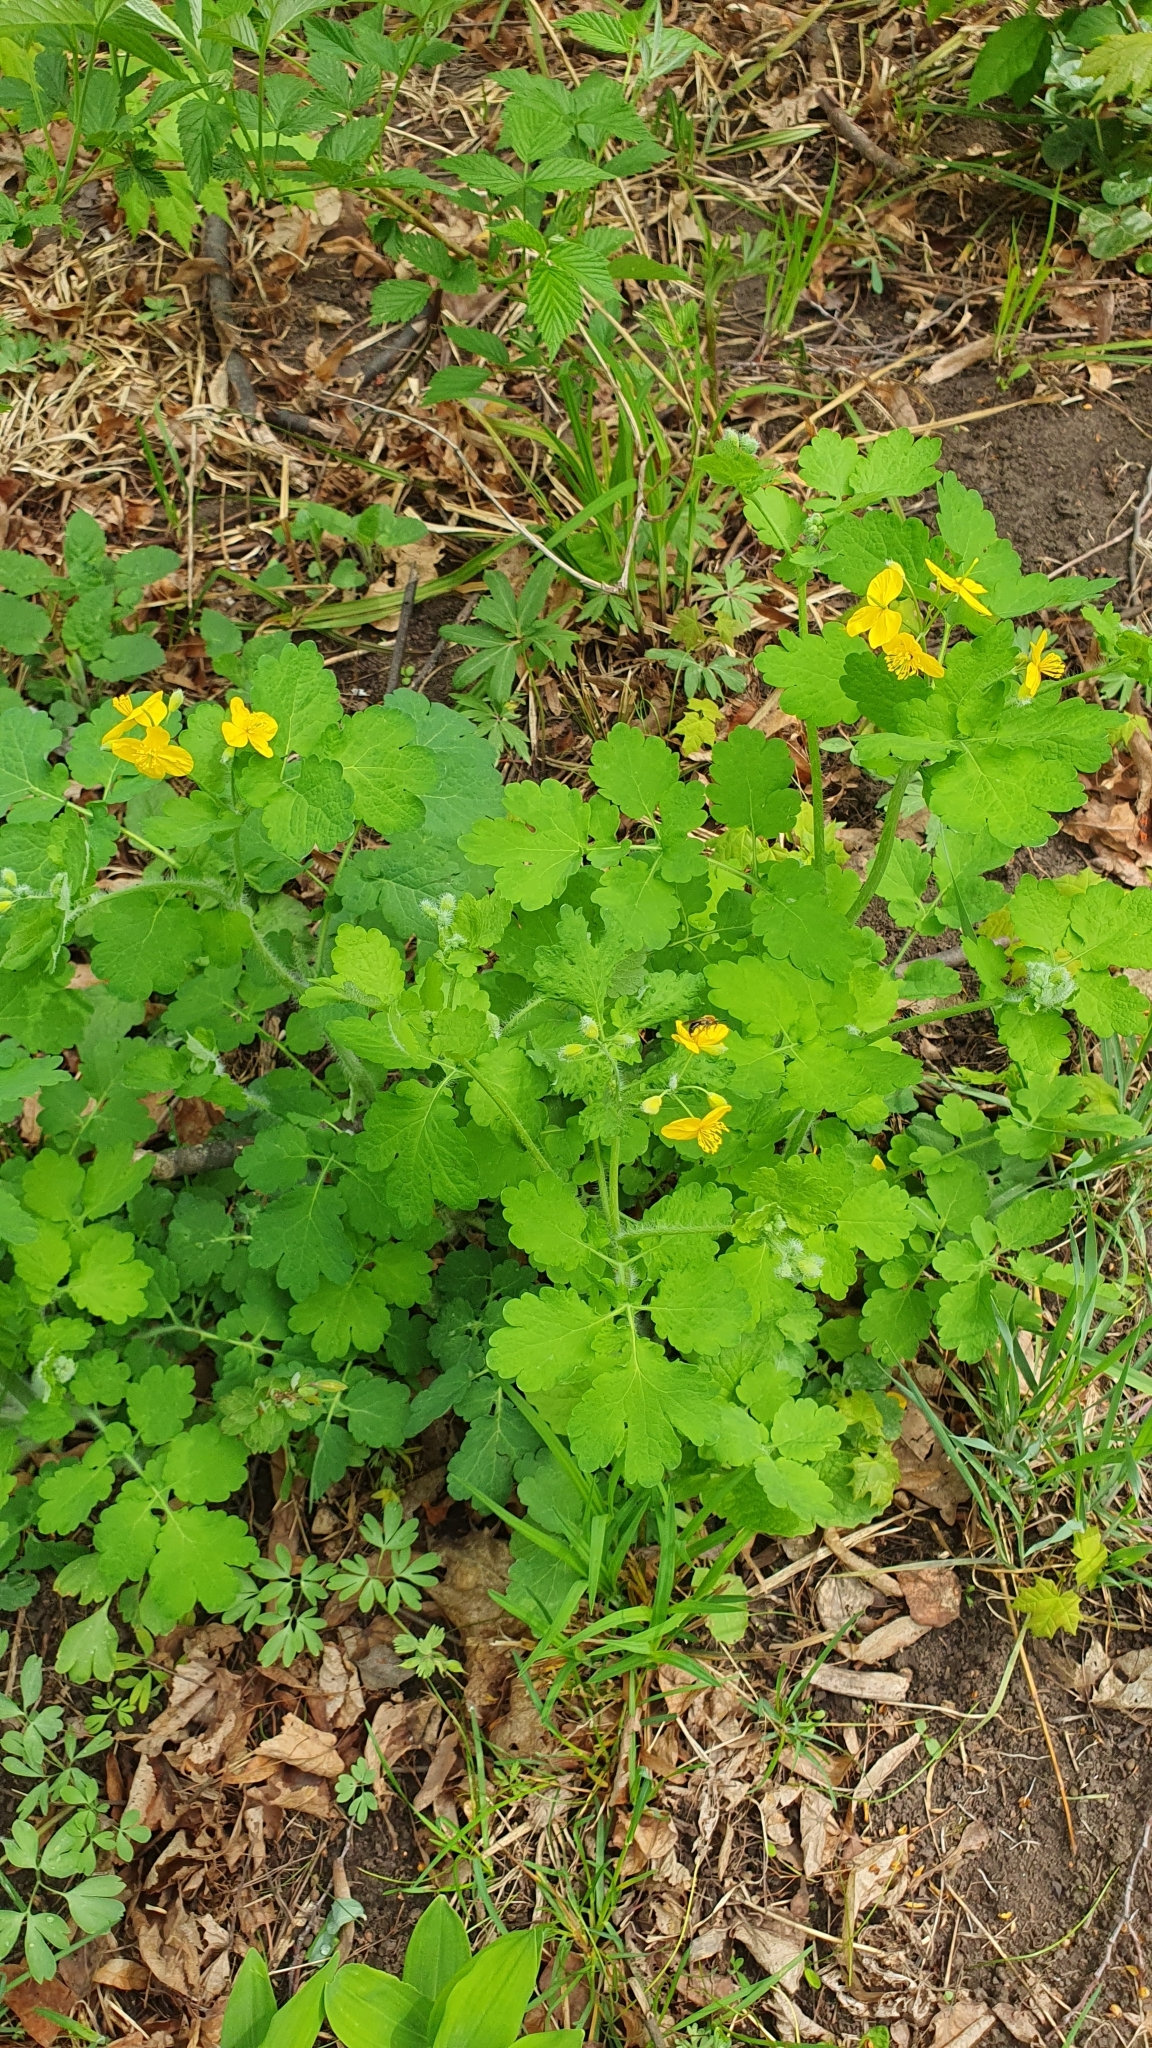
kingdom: Plantae
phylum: Tracheophyta
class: Magnoliopsida
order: Ranunculales
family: Papaveraceae
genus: Chelidonium
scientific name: Chelidonium majus
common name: Greater celandine
